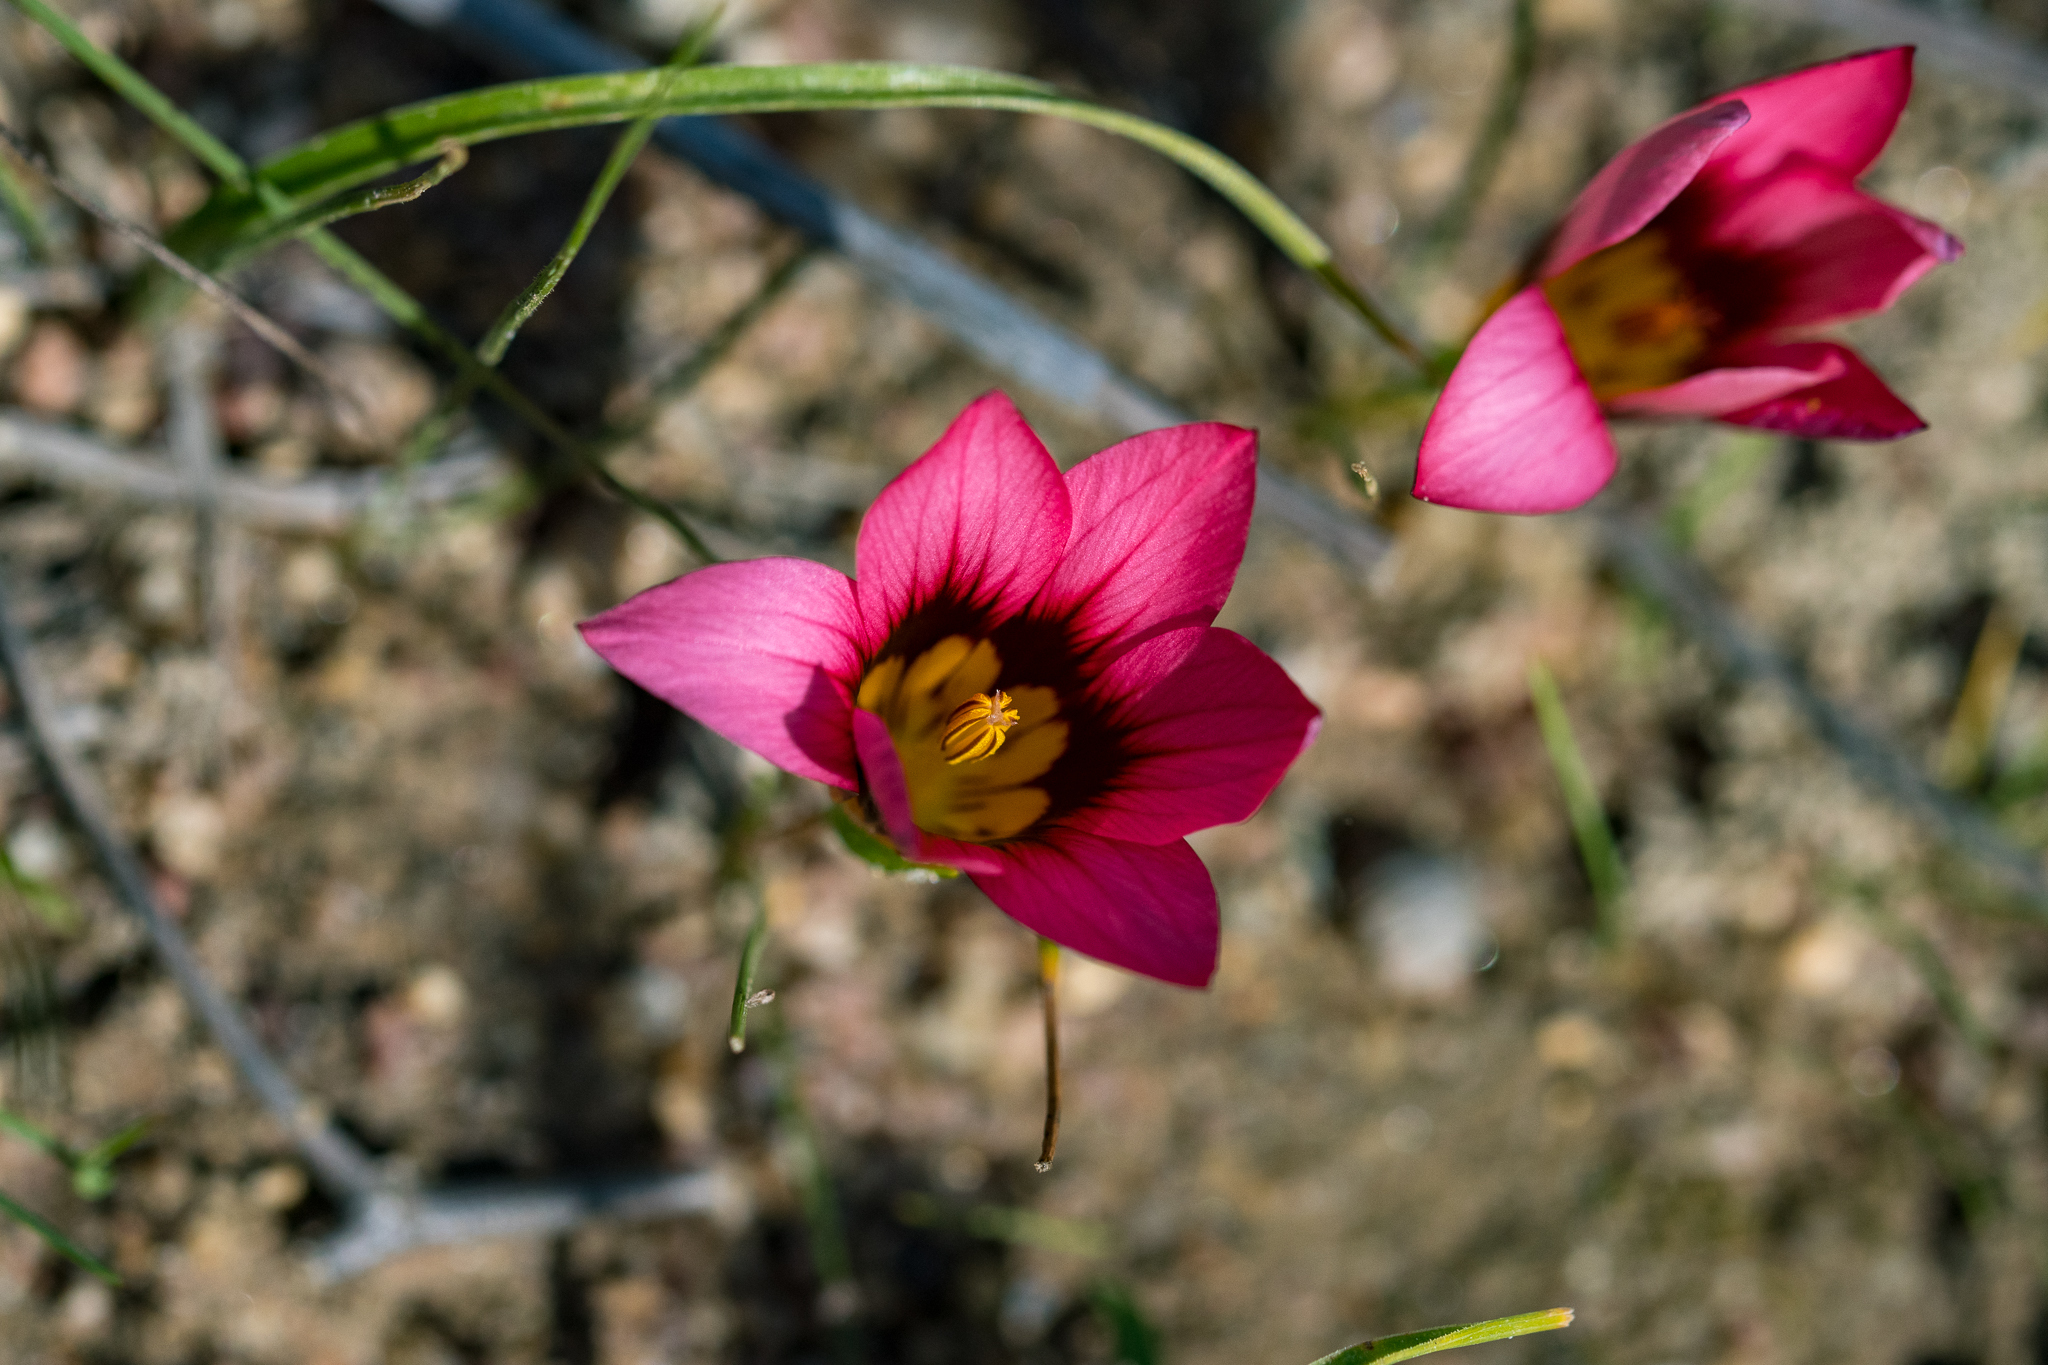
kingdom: Plantae
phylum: Tracheophyta
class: Liliopsida
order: Asparagales
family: Iridaceae
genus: Romulea
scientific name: Romulea hirsuta
